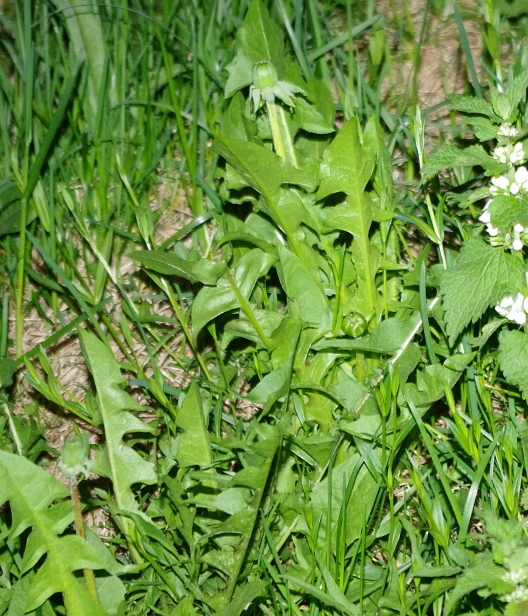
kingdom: Plantae
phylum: Tracheophyta
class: Magnoliopsida
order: Asterales
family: Asteraceae
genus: Taraxacum
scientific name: Taraxacum officinale
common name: Common dandelion
